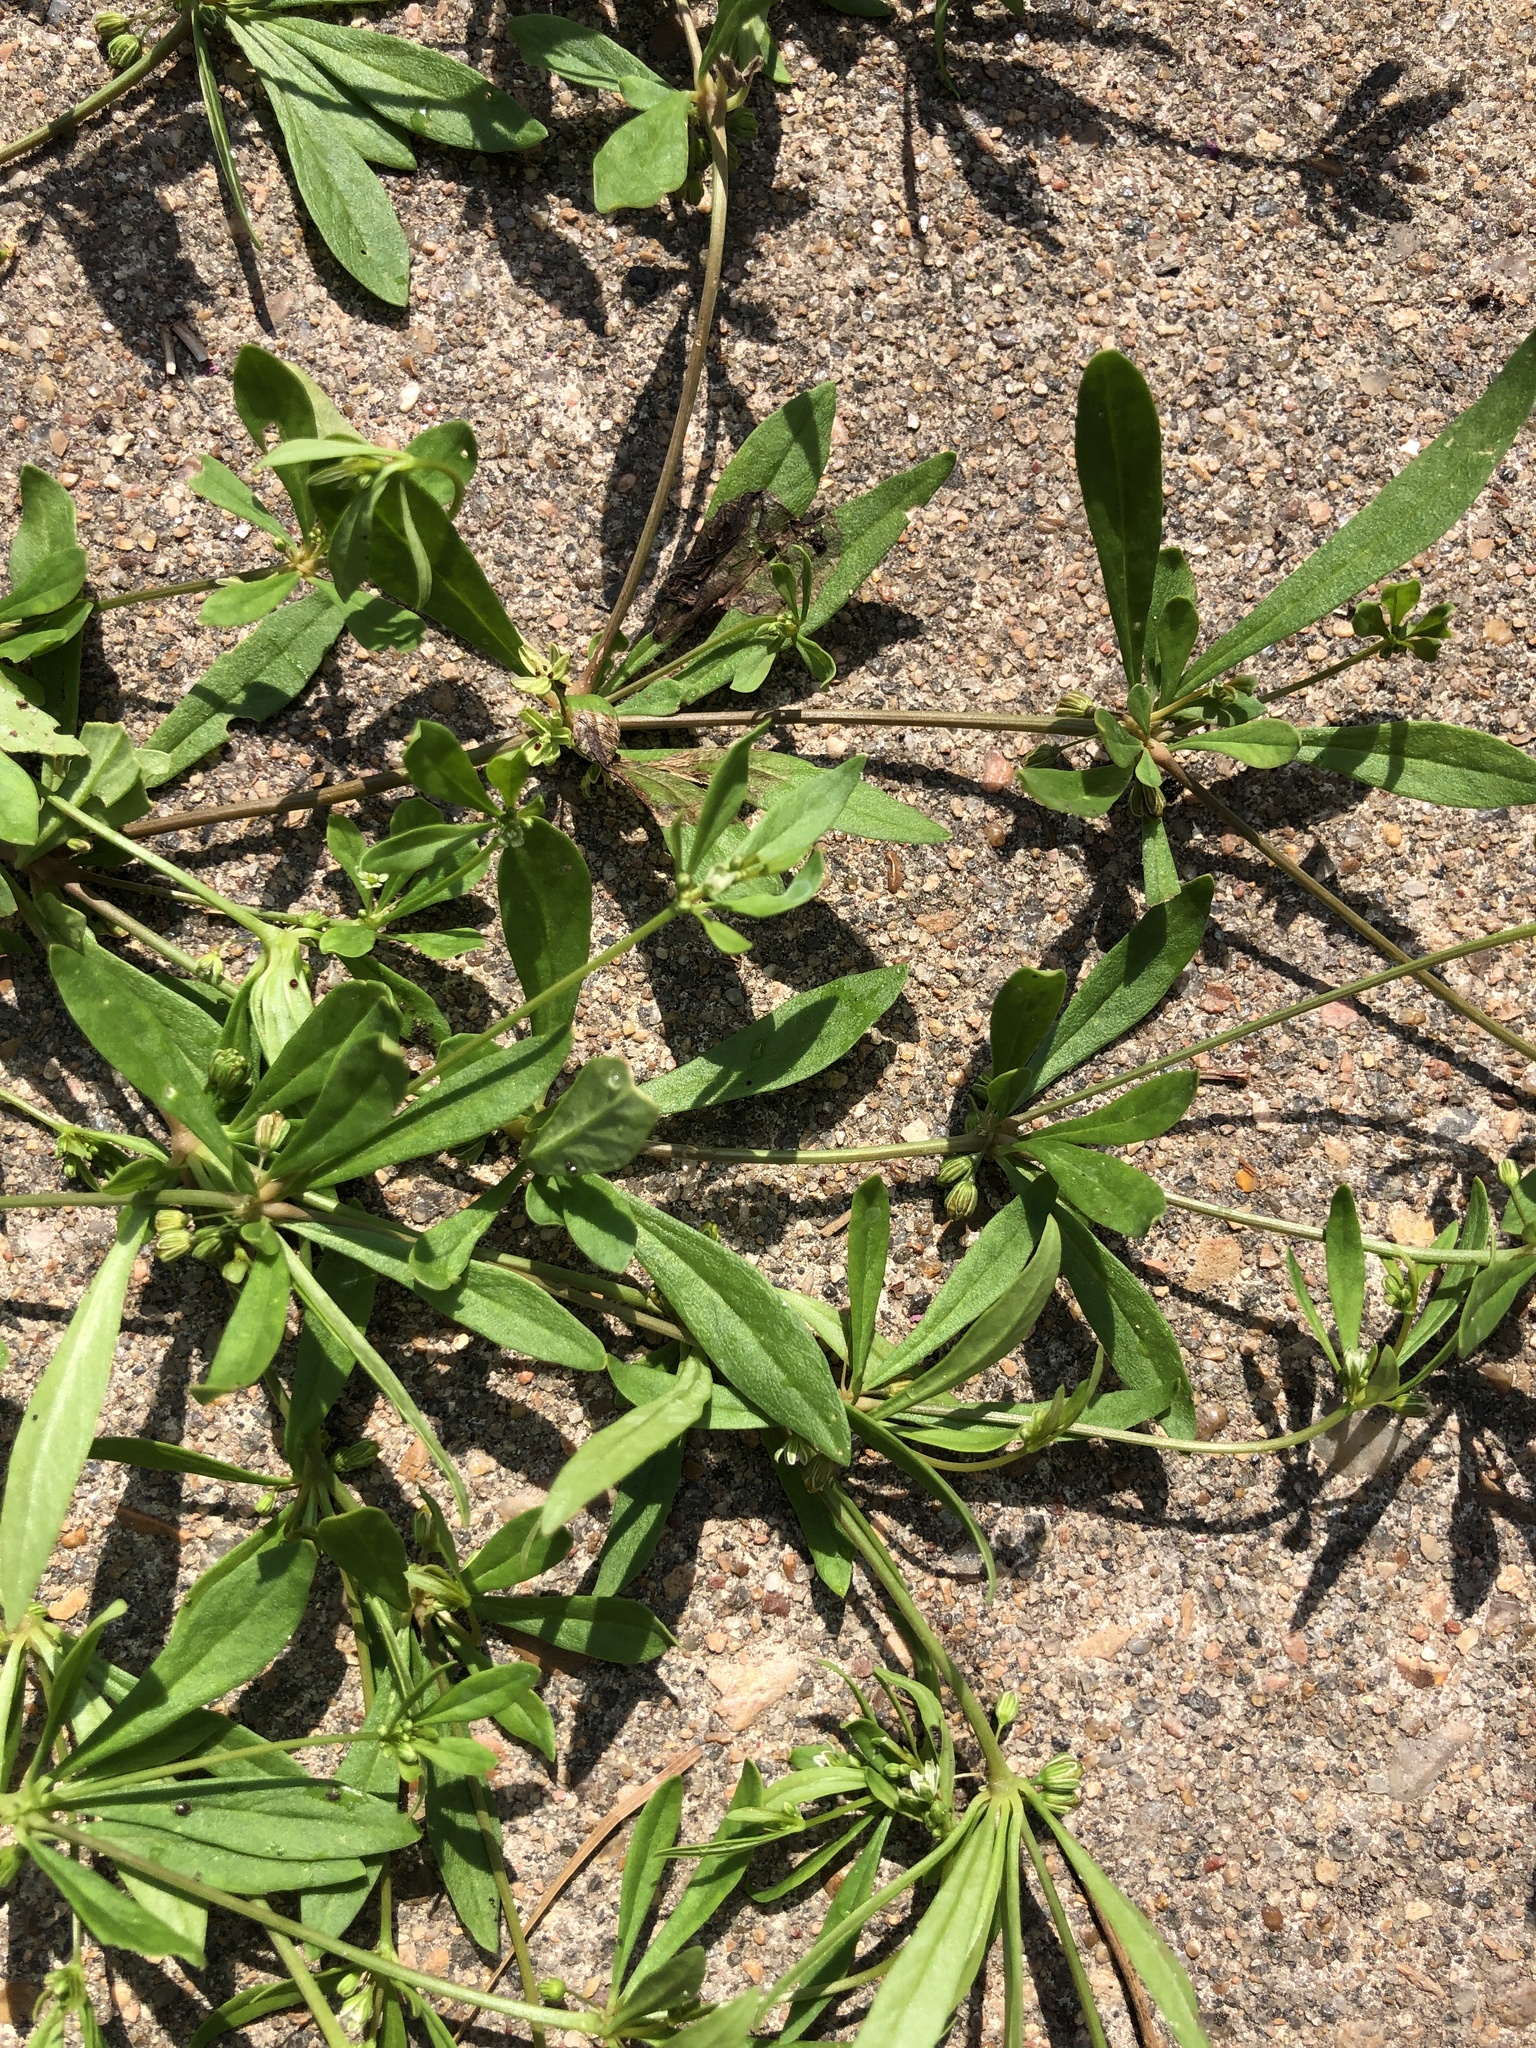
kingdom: Plantae
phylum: Tracheophyta
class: Magnoliopsida
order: Caryophyllales
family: Molluginaceae
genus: Mollugo
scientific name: Mollugo verticillata
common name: Green carpetweed
